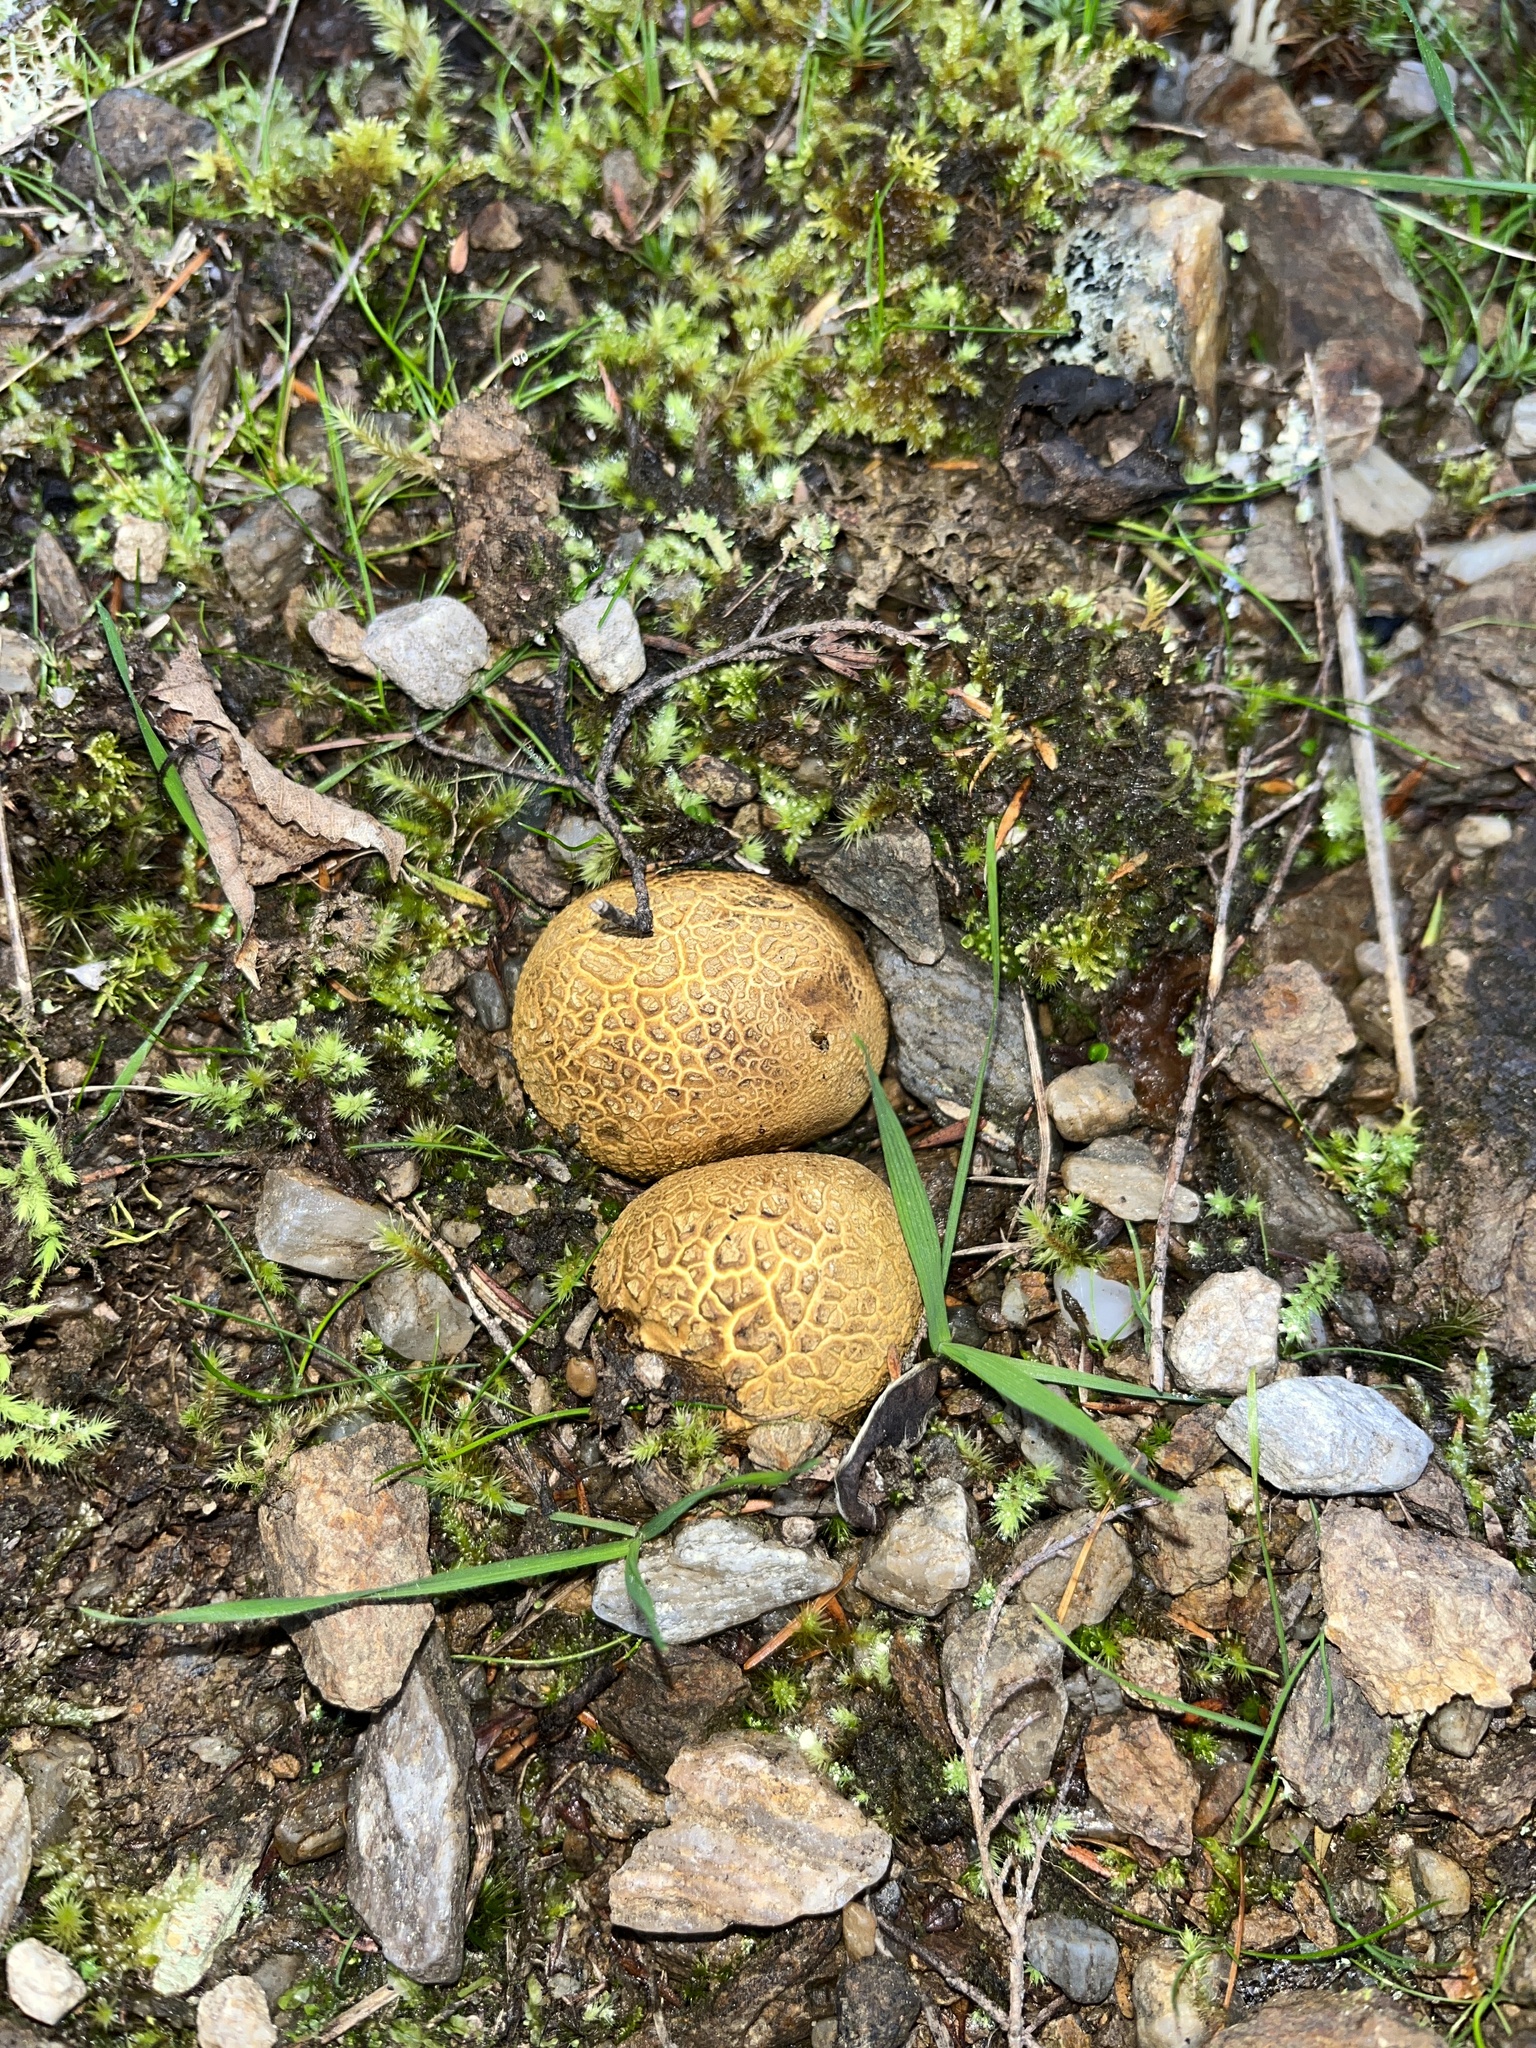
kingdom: Fungi
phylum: Basidiomycota
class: Agaricomycetes
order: Boletales
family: Sclerodermataceae
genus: Scleroderma
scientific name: Scleroderma
